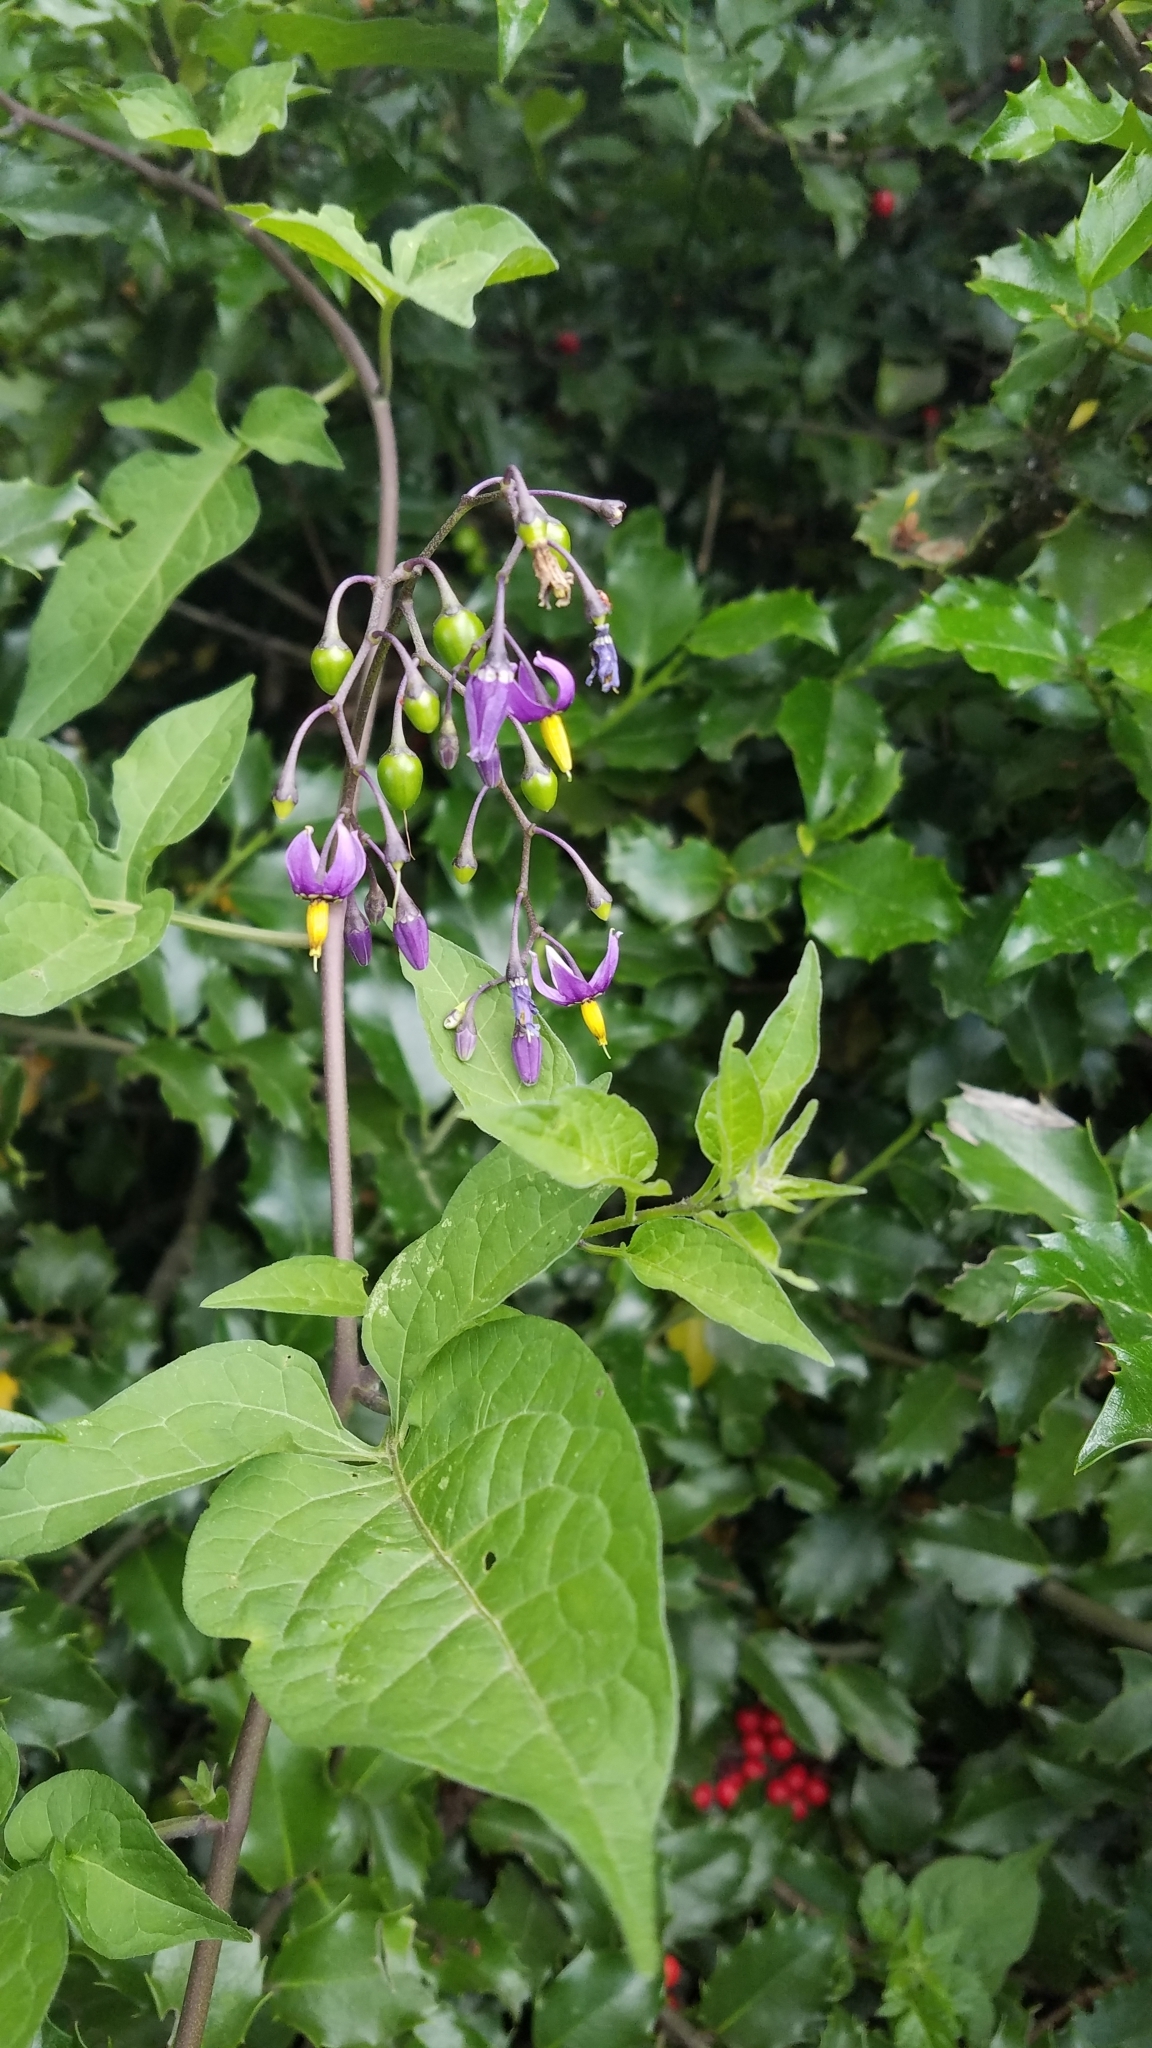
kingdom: Plantae
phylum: Tracheophyta
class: Magnoliopsida
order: Solanales
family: Solanaceae
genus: Solanum
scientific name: Solanum dulcamara
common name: Climbing nightshade
